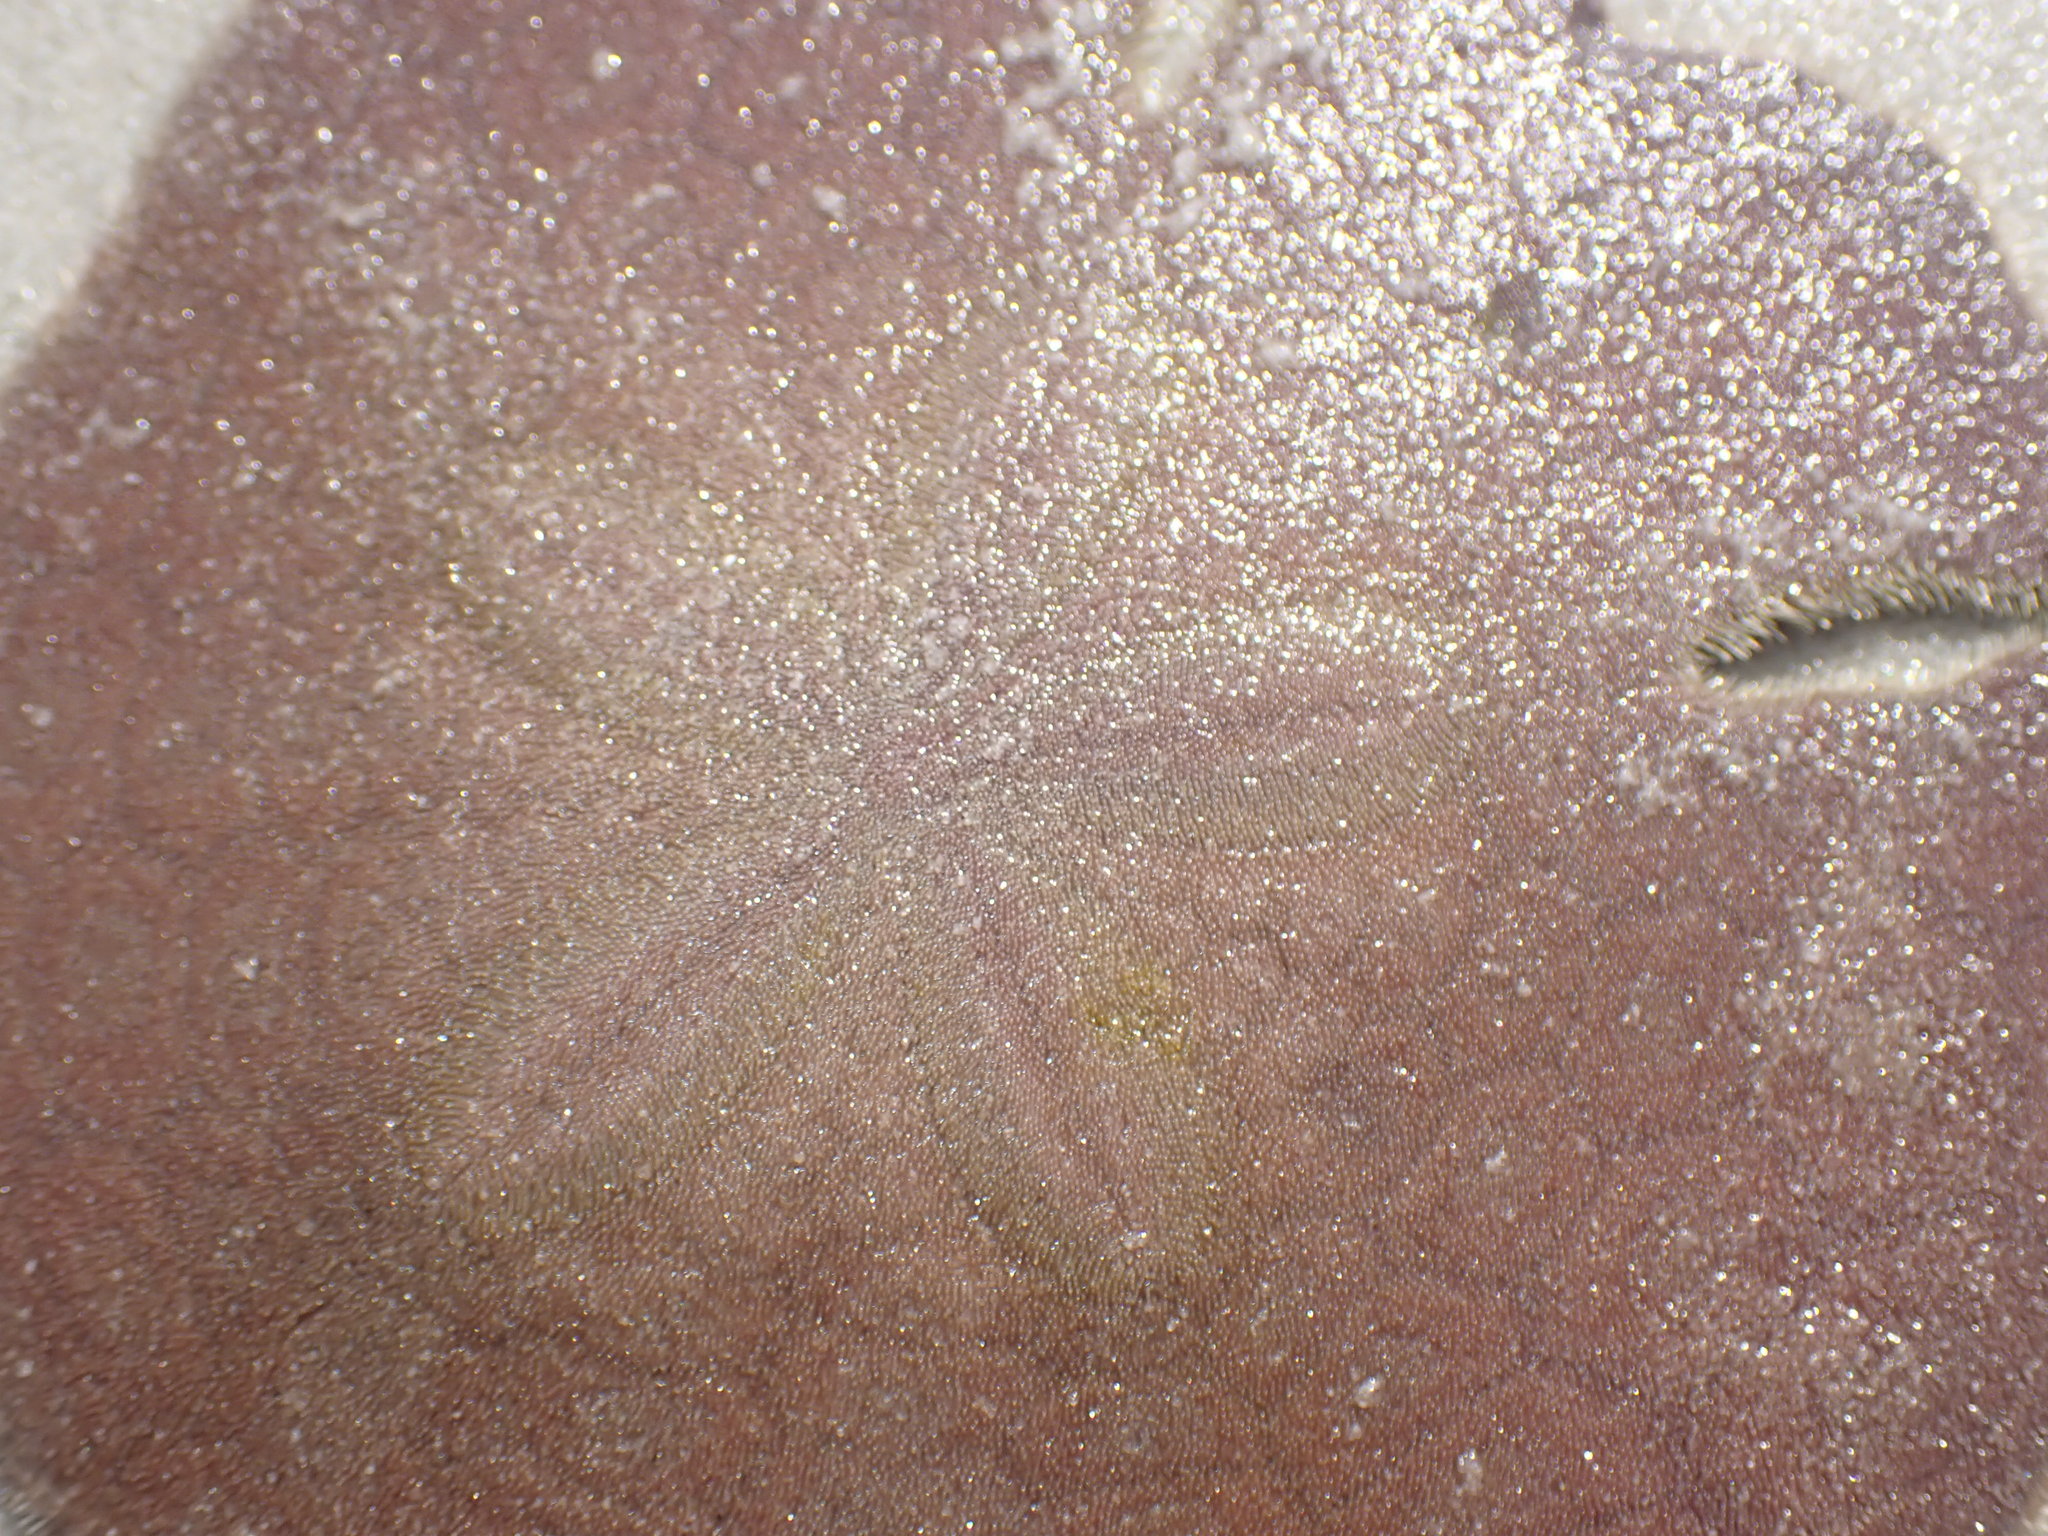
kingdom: Animalia
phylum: Echinodermata
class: Echinoidea
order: Echinolampadacea
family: Astriclypeidae
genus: Sculpsitechinus
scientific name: Sculpsitechinus auritus
